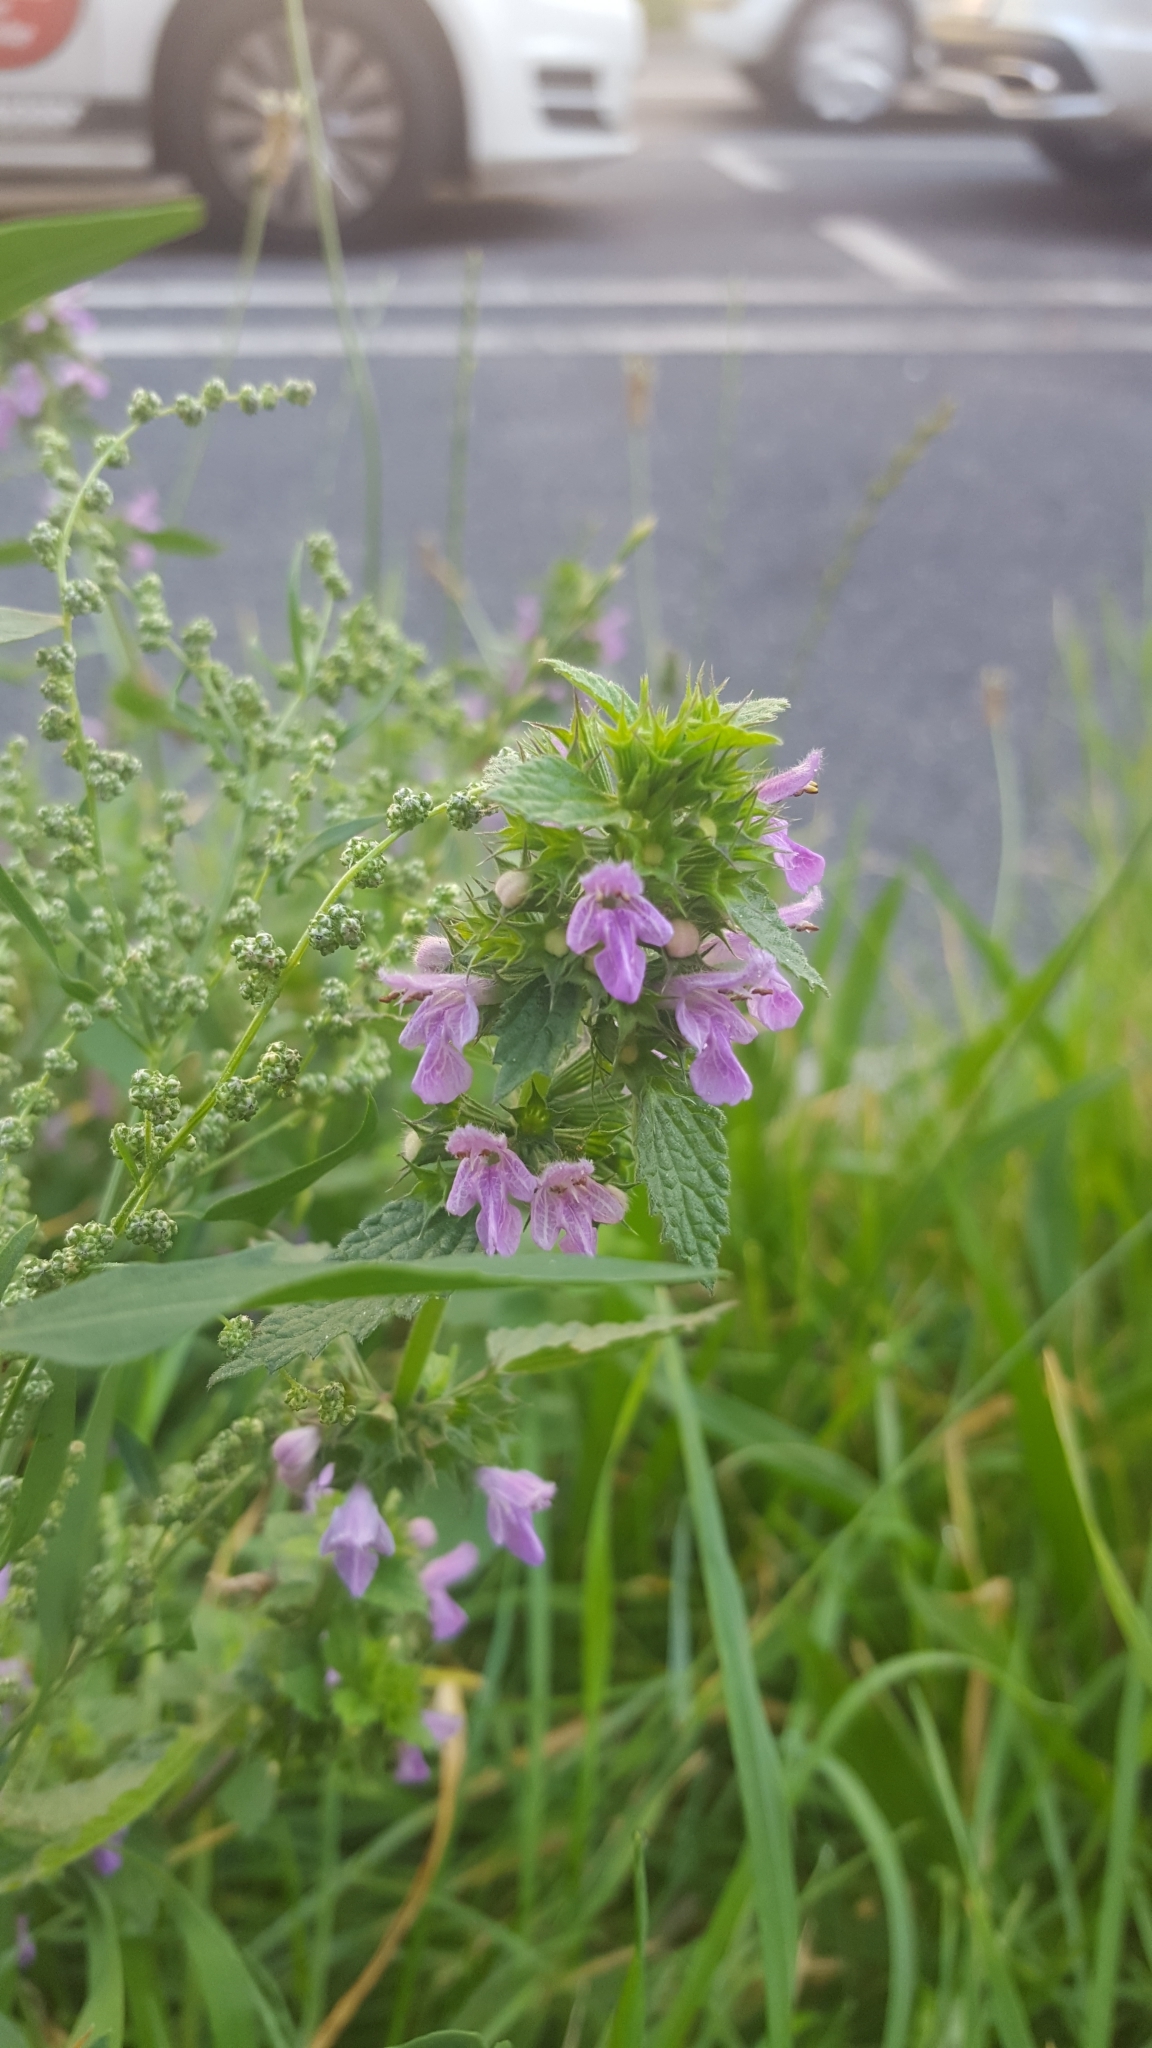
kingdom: Plantae
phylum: Tracheophyta
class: Magnoliopsida
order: Lamiales
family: Lamiaceae
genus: Ballota
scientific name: Ballota nigra
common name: Black horehound
